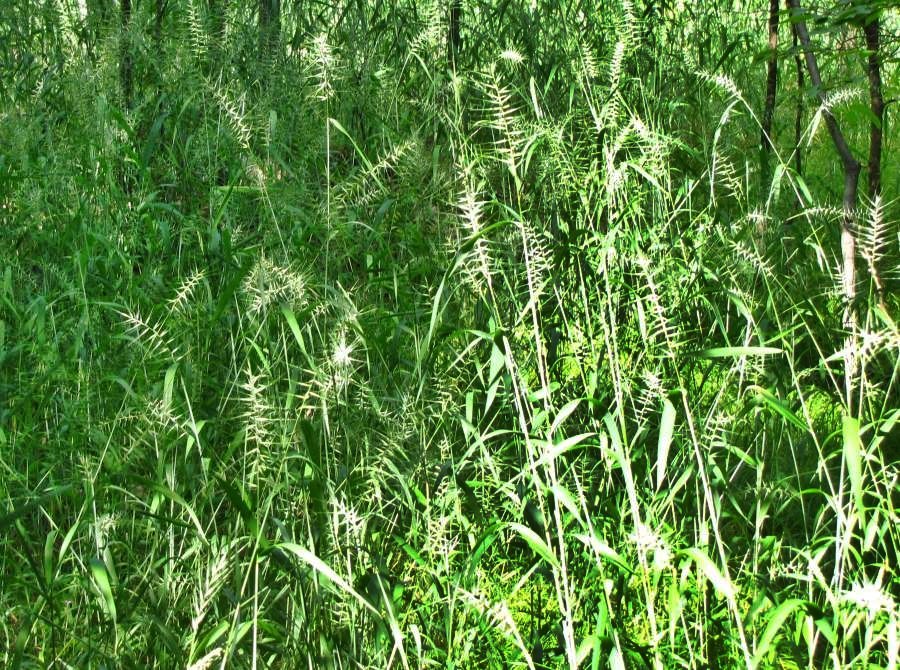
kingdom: Plantae
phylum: Tracheophyta
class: Liliopsida
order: Poales
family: Poaceae
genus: Elymus
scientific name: Elymus hystrix
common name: Bottlebrush grass
